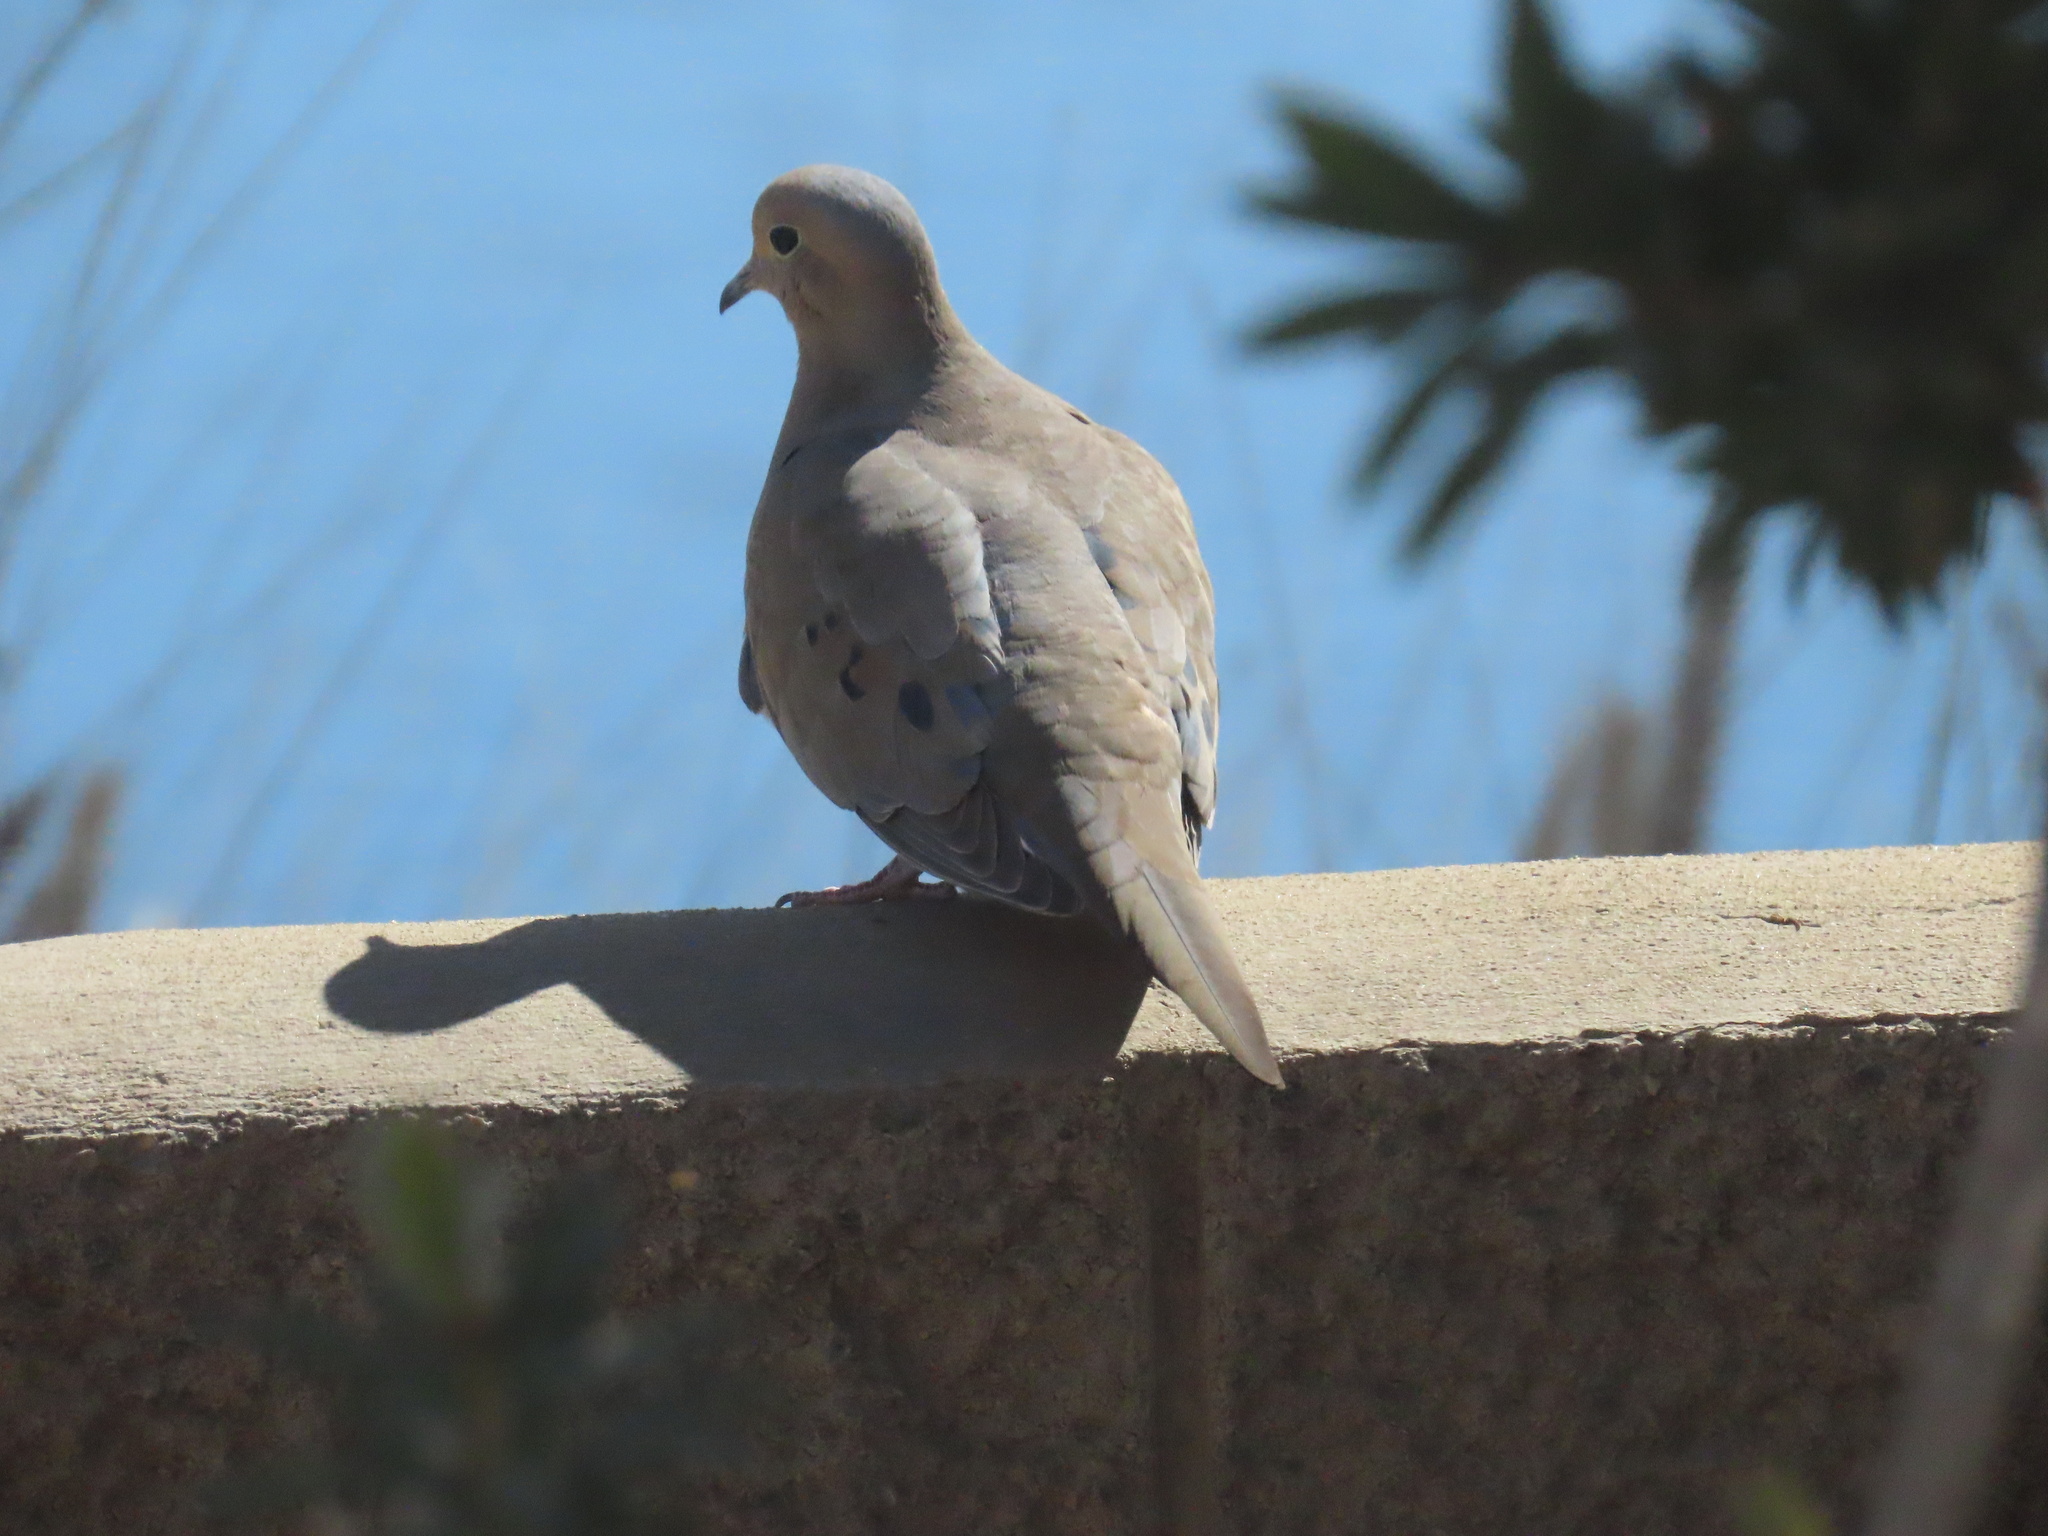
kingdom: Animalia
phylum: Chordata
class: Aves
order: Columbiformes
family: Columbidae
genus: Zenaida
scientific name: Zenaida macroura
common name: Mourning dove
